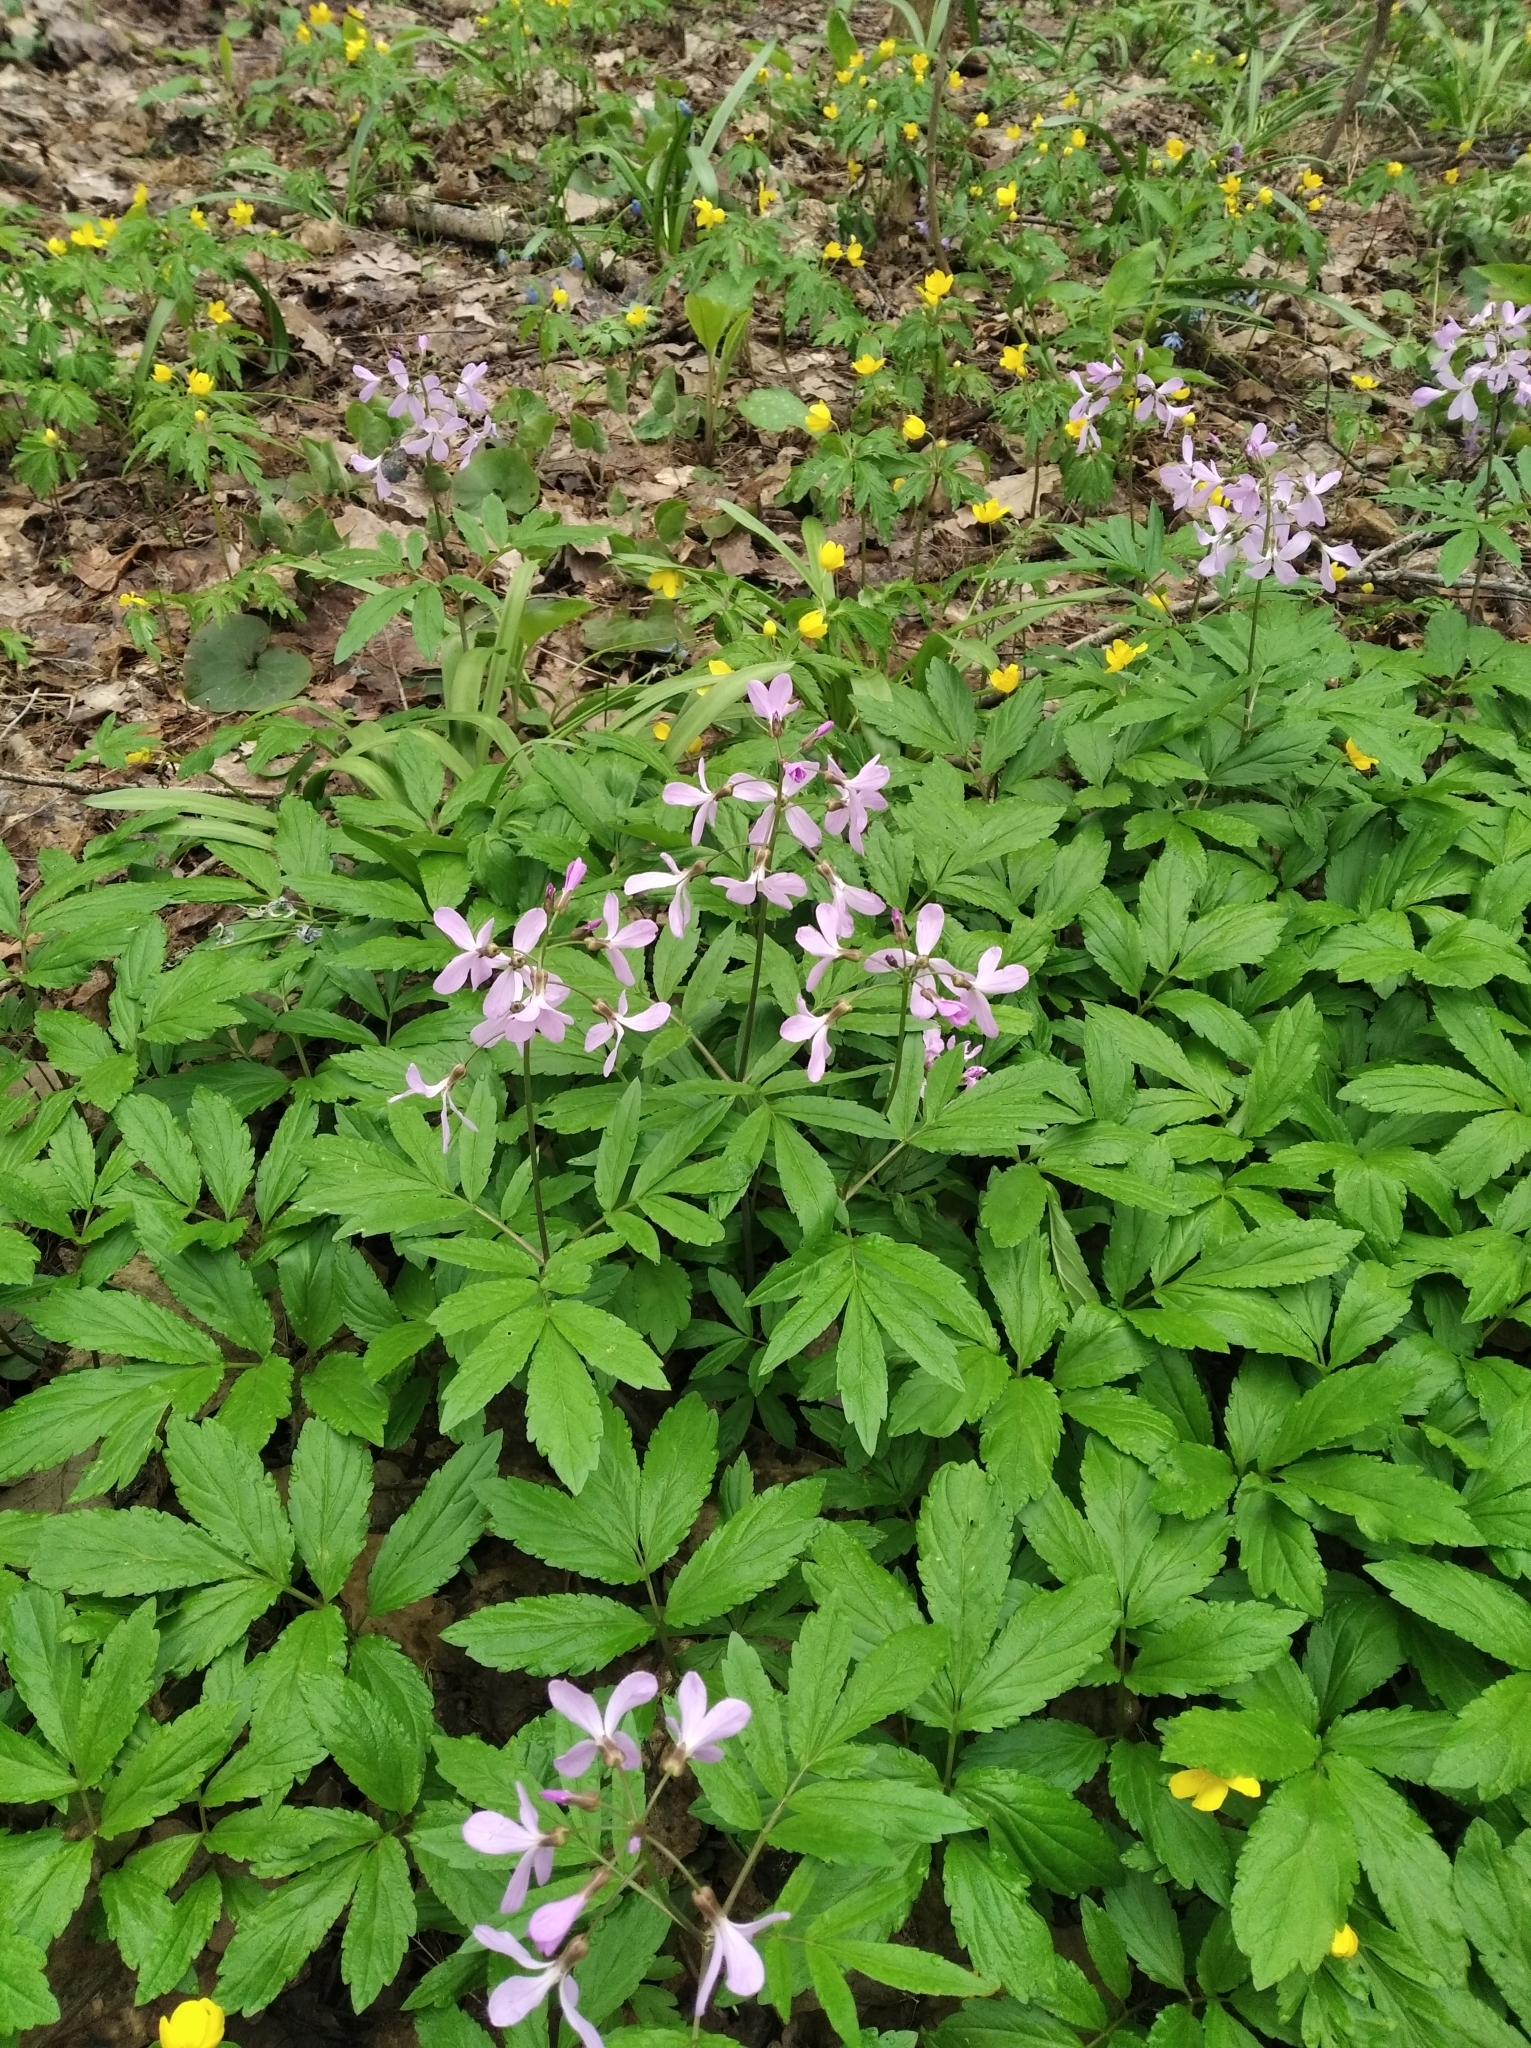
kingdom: Plantae
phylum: Tracheophyta
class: Magnoliopsida
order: Brassicales
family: Brassicaceae
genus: Cardamine
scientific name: Cardamine quinquefolia
